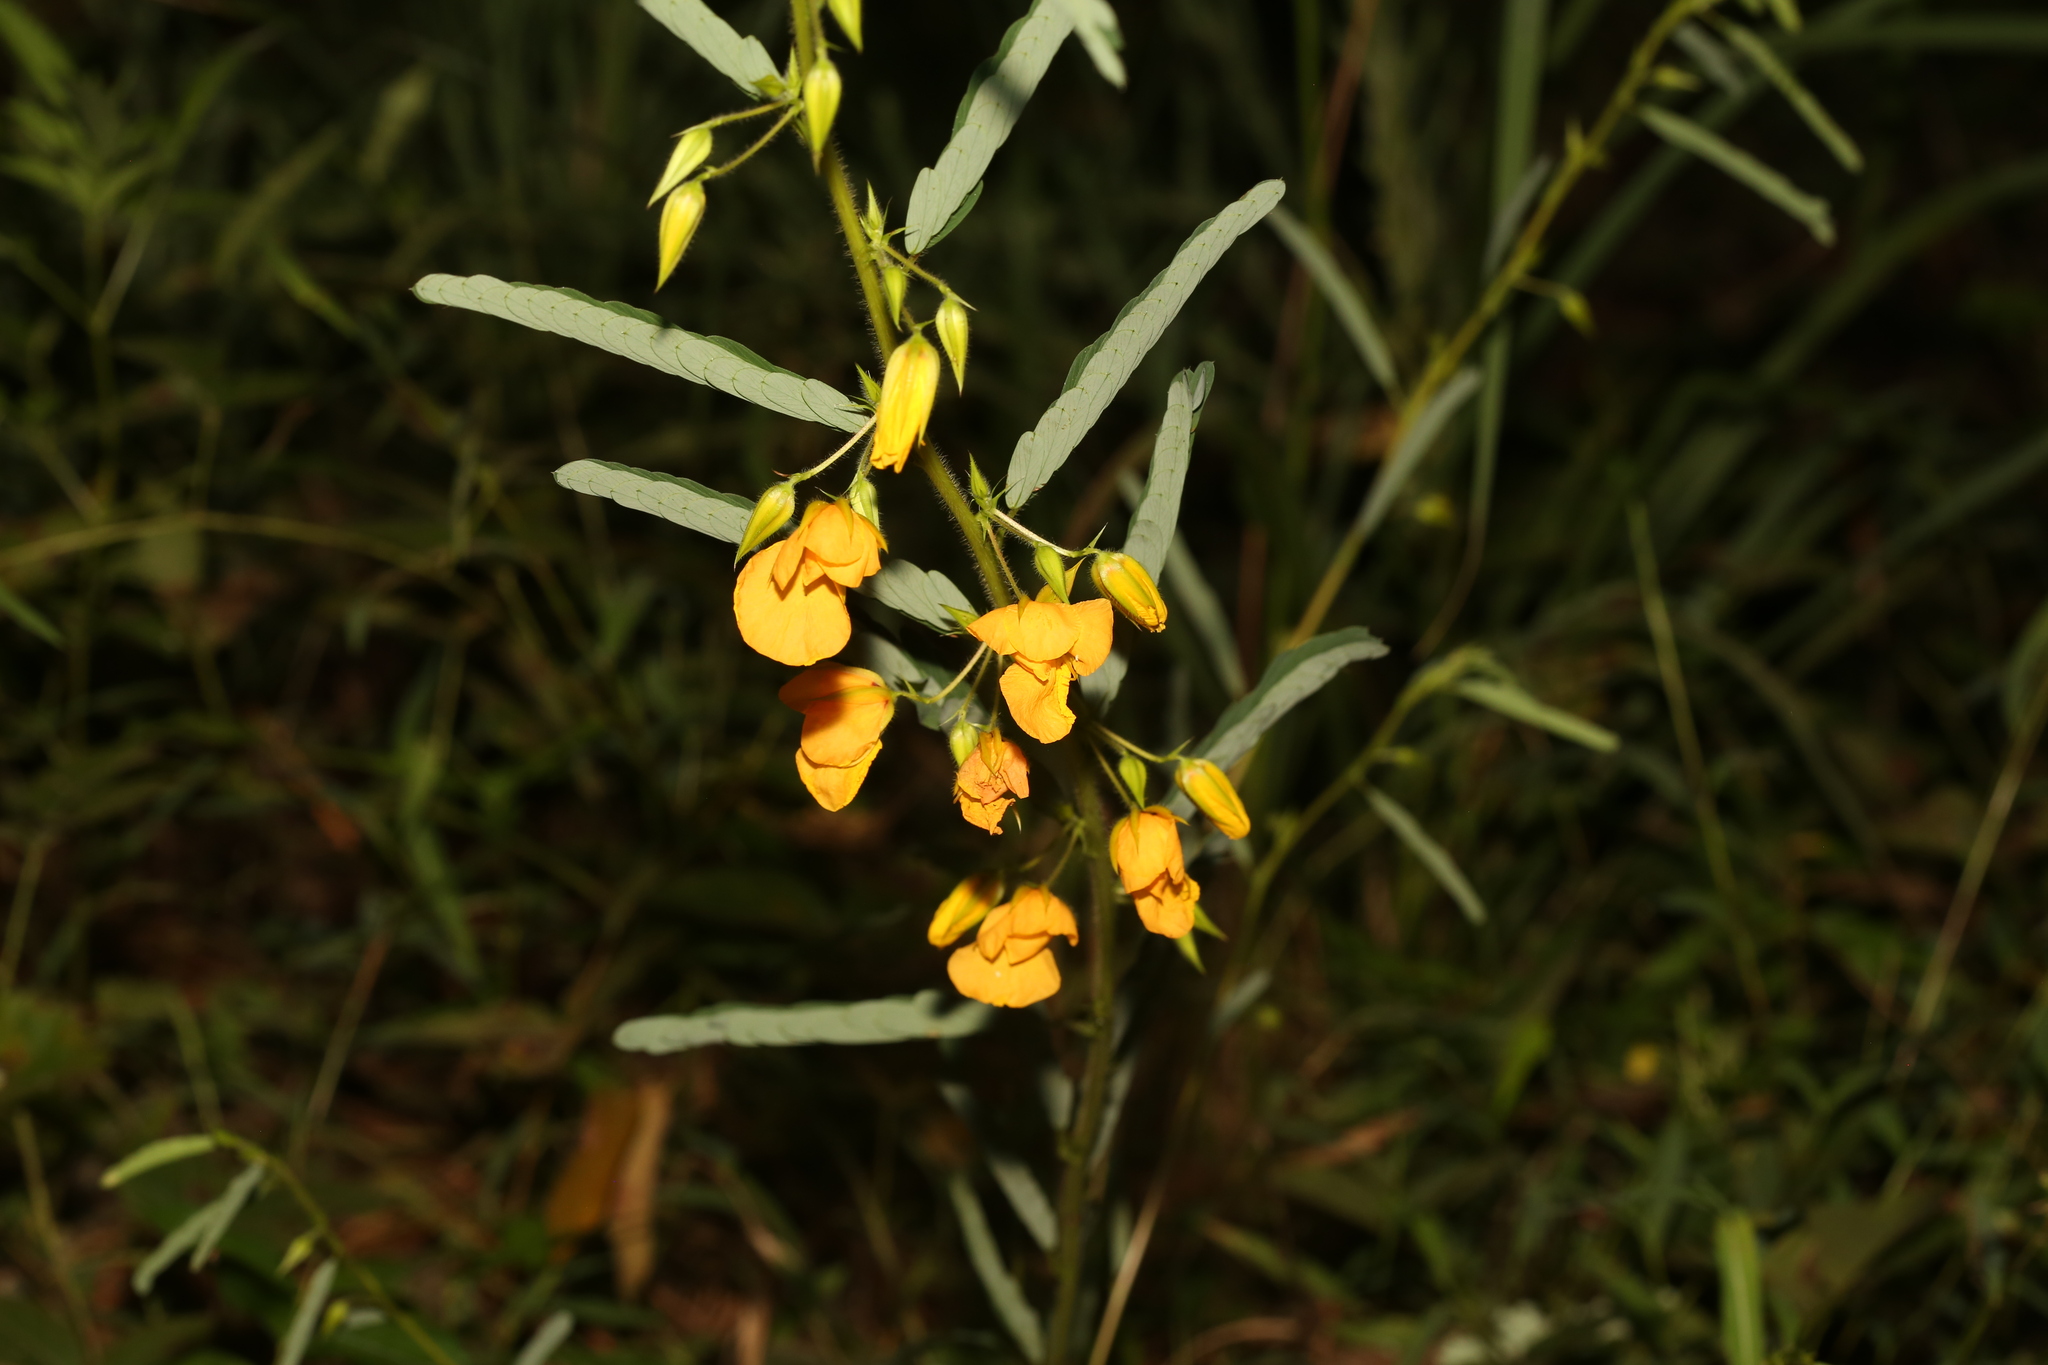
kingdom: Plantae
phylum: Tracheophyta
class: Magnoliopsida
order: Fabales
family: Fabaceae
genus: Chamaecrista
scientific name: Chamaecrista fasciculata
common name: Golden cassia
